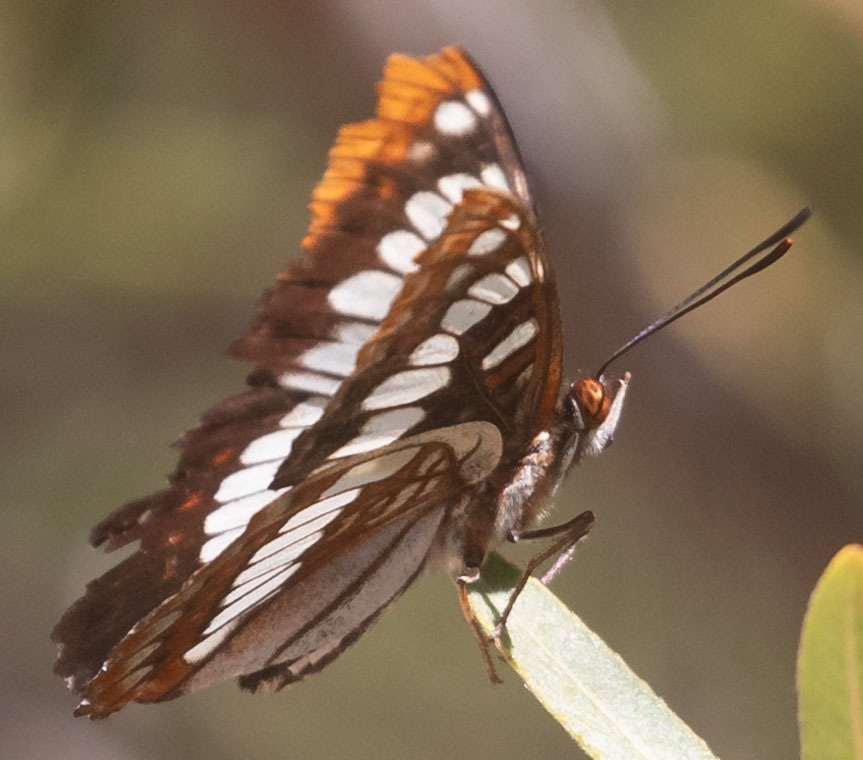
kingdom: Animalia
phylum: Arthropoda
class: Insecta
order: Lepidoptera
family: Nymphalidae
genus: Limenitis
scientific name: Limenitis lorquini
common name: Lorquin's admiral
